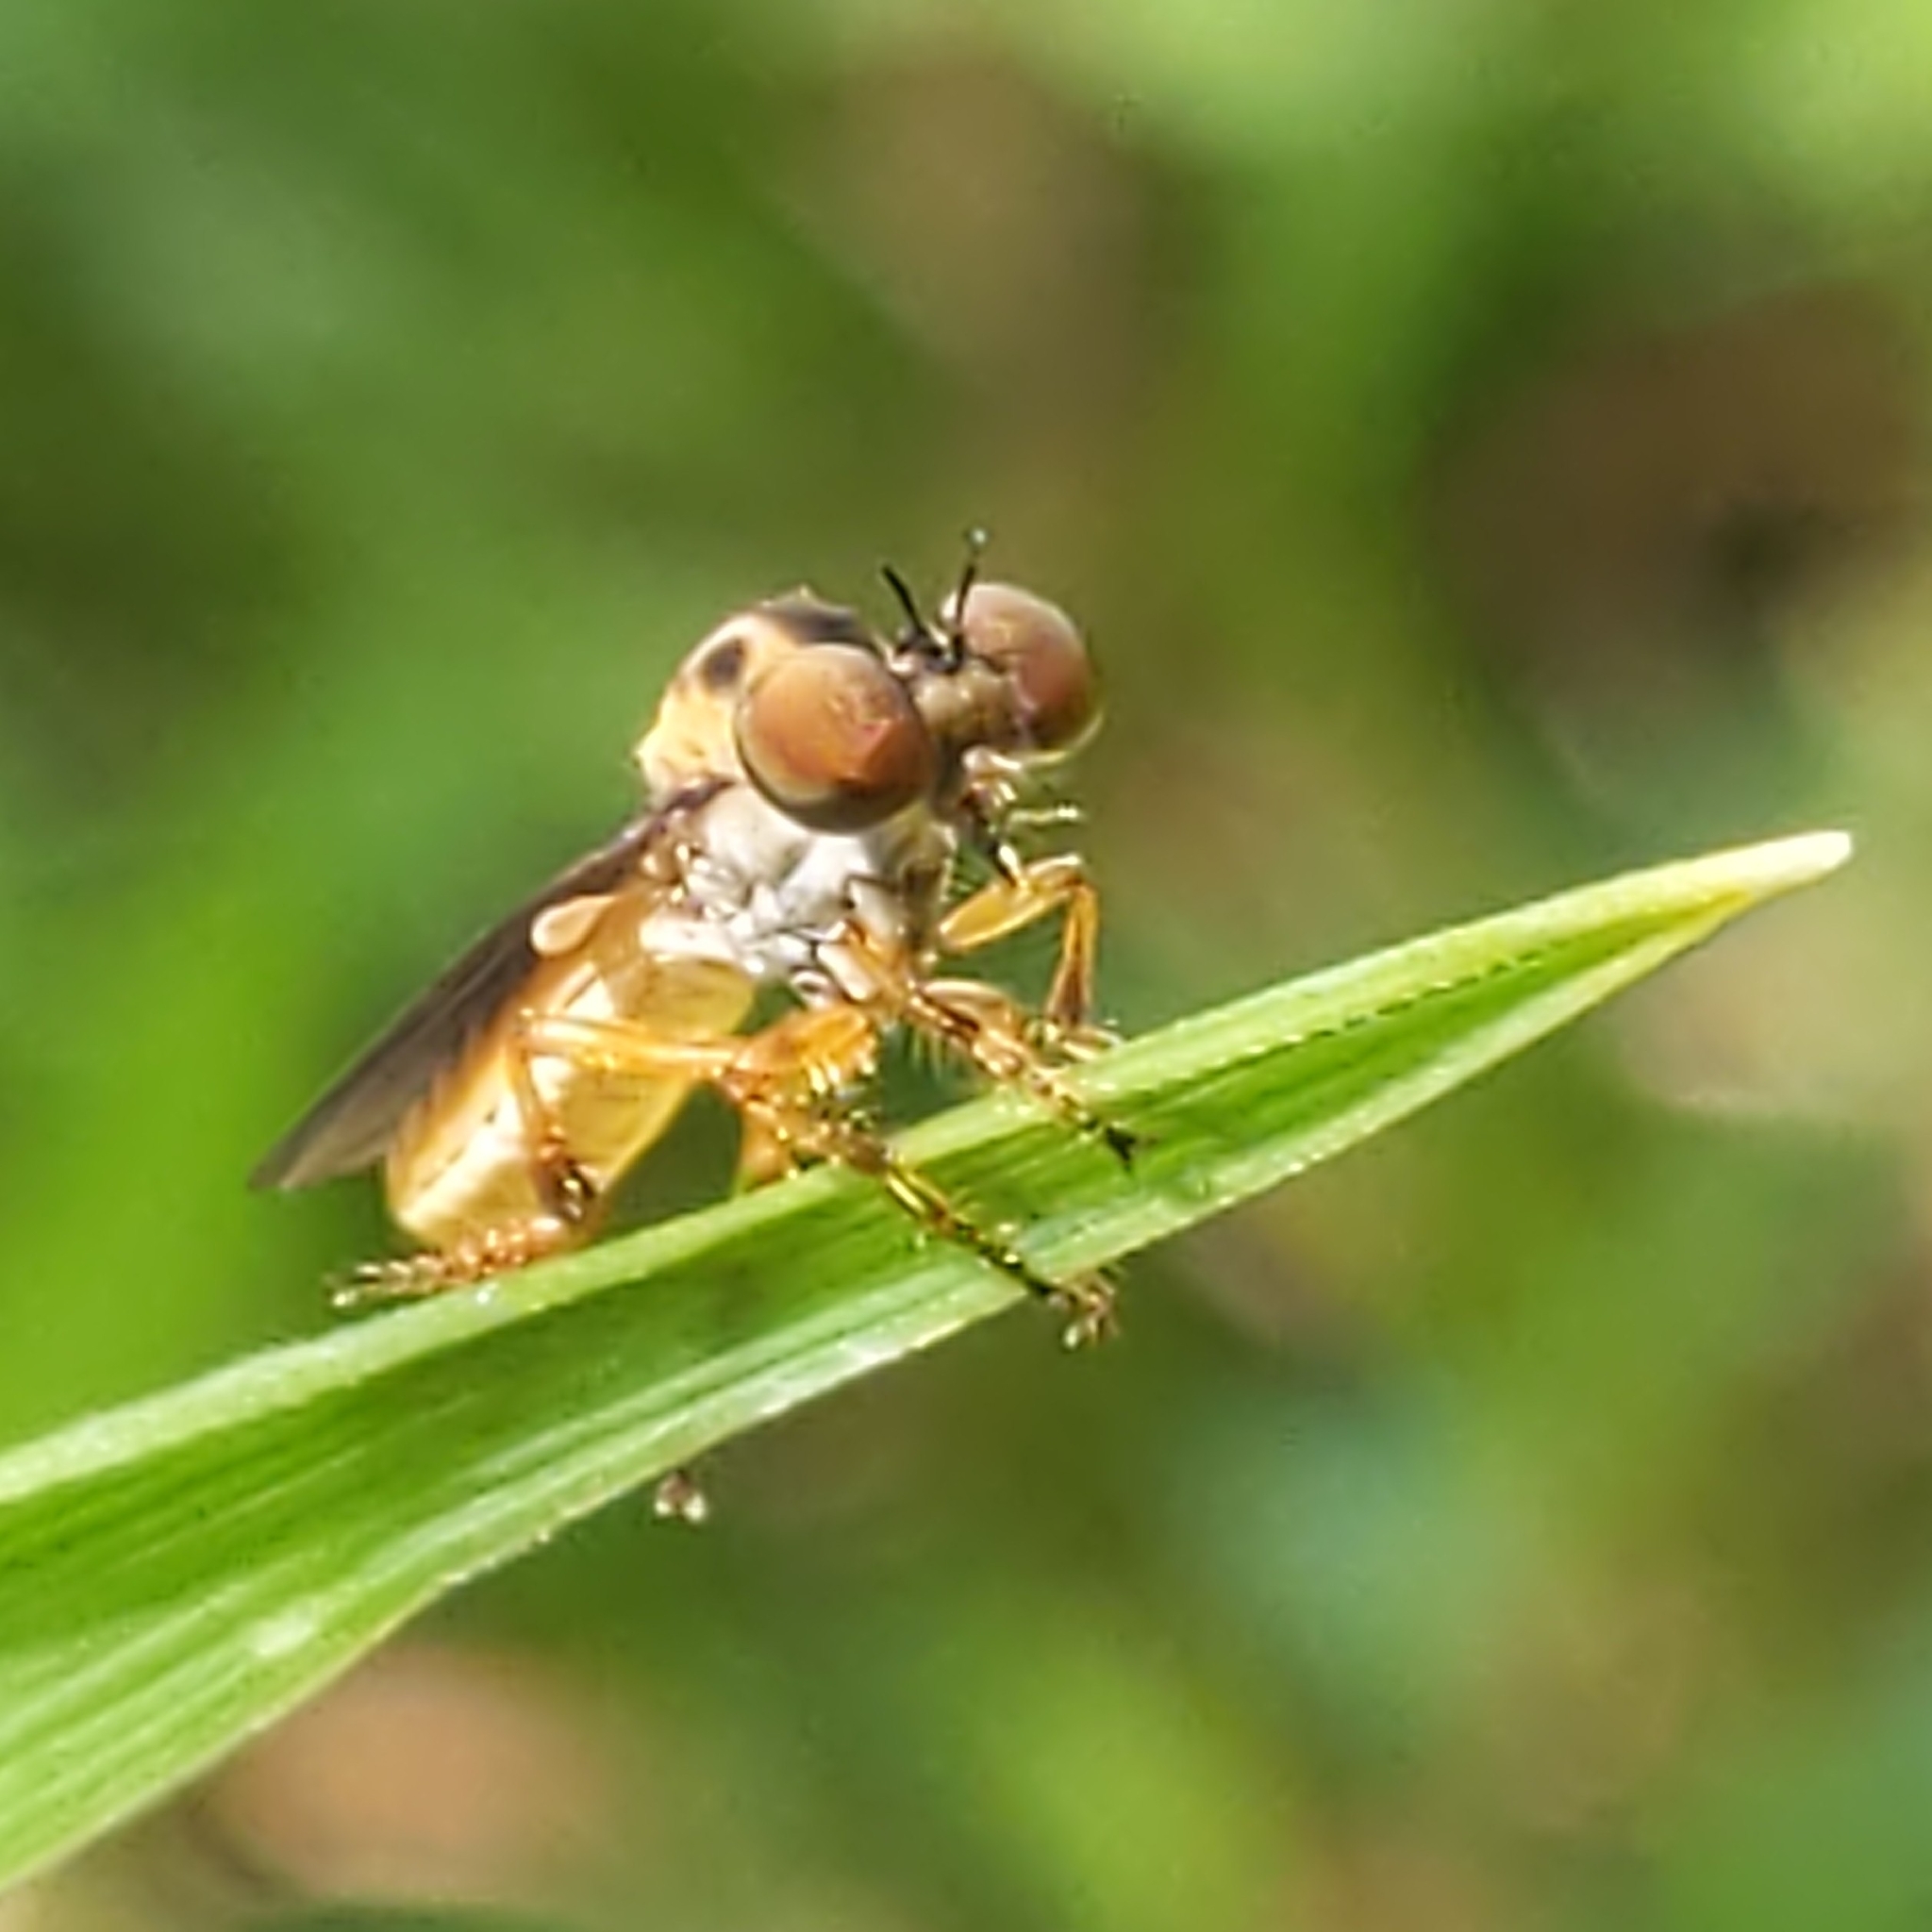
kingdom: Animalia
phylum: Arthropoda
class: Insecta
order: Diptera
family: Asilidae
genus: Holcocephala
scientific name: Holcocephala
